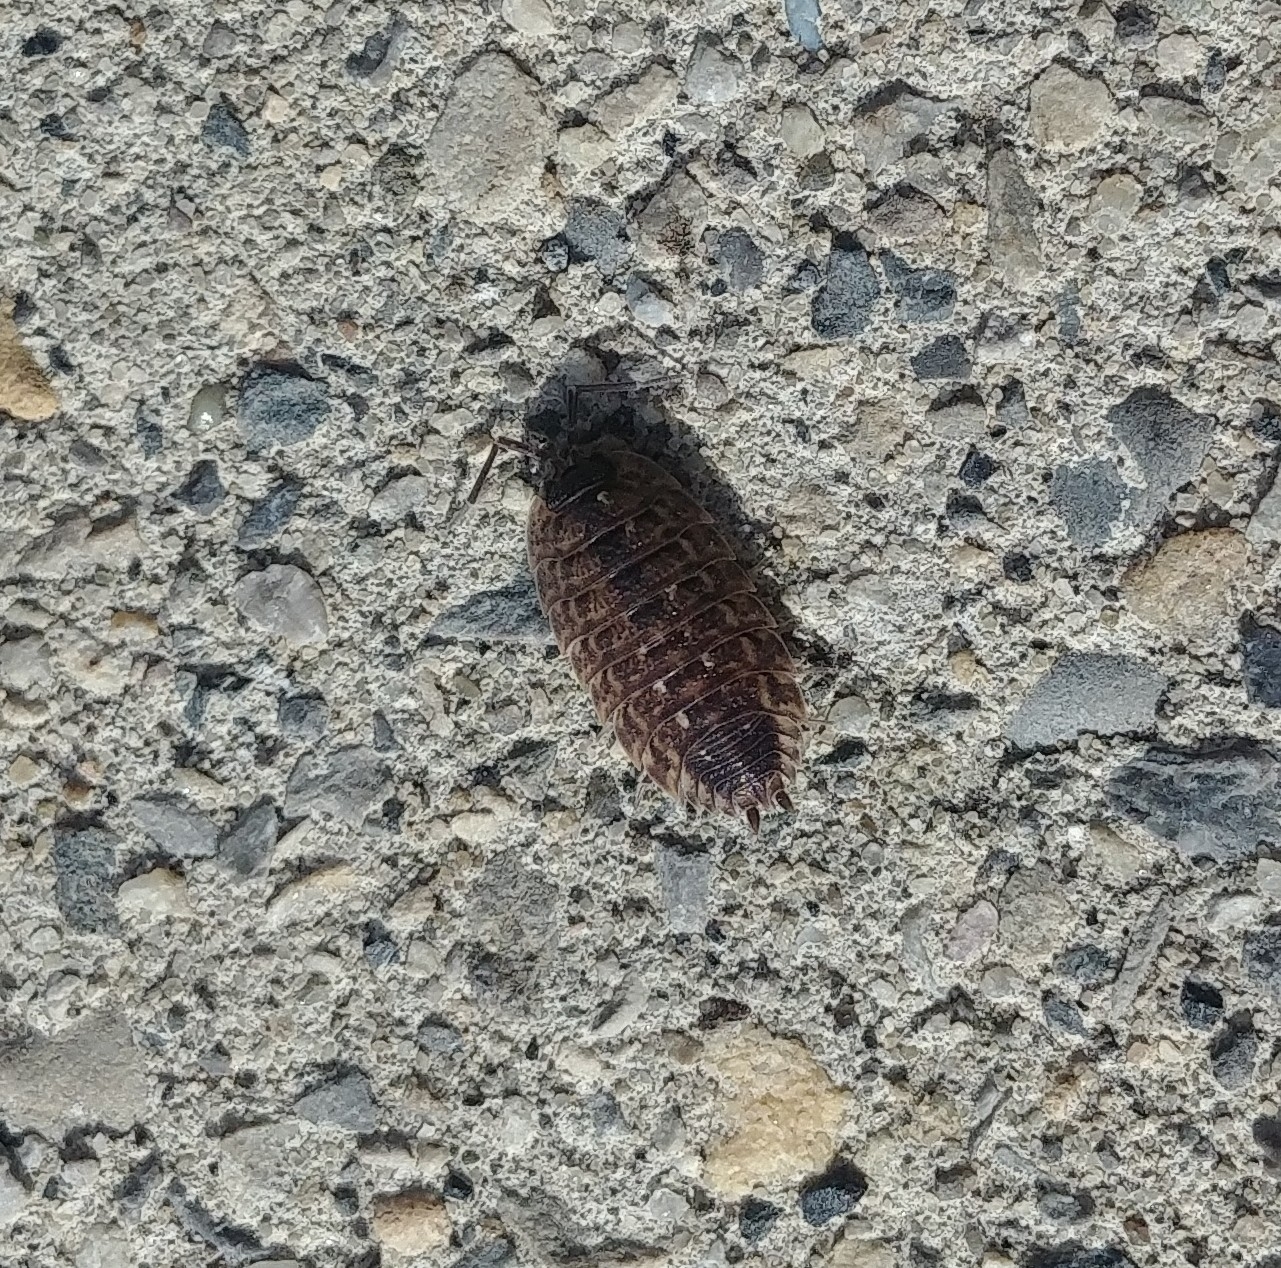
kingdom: Animalia
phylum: Arthropoda
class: Malacostraca
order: Isopoda
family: Porcellionidae
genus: Porcellio
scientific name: Porcellio spinicornis
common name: Painted woodlouse
